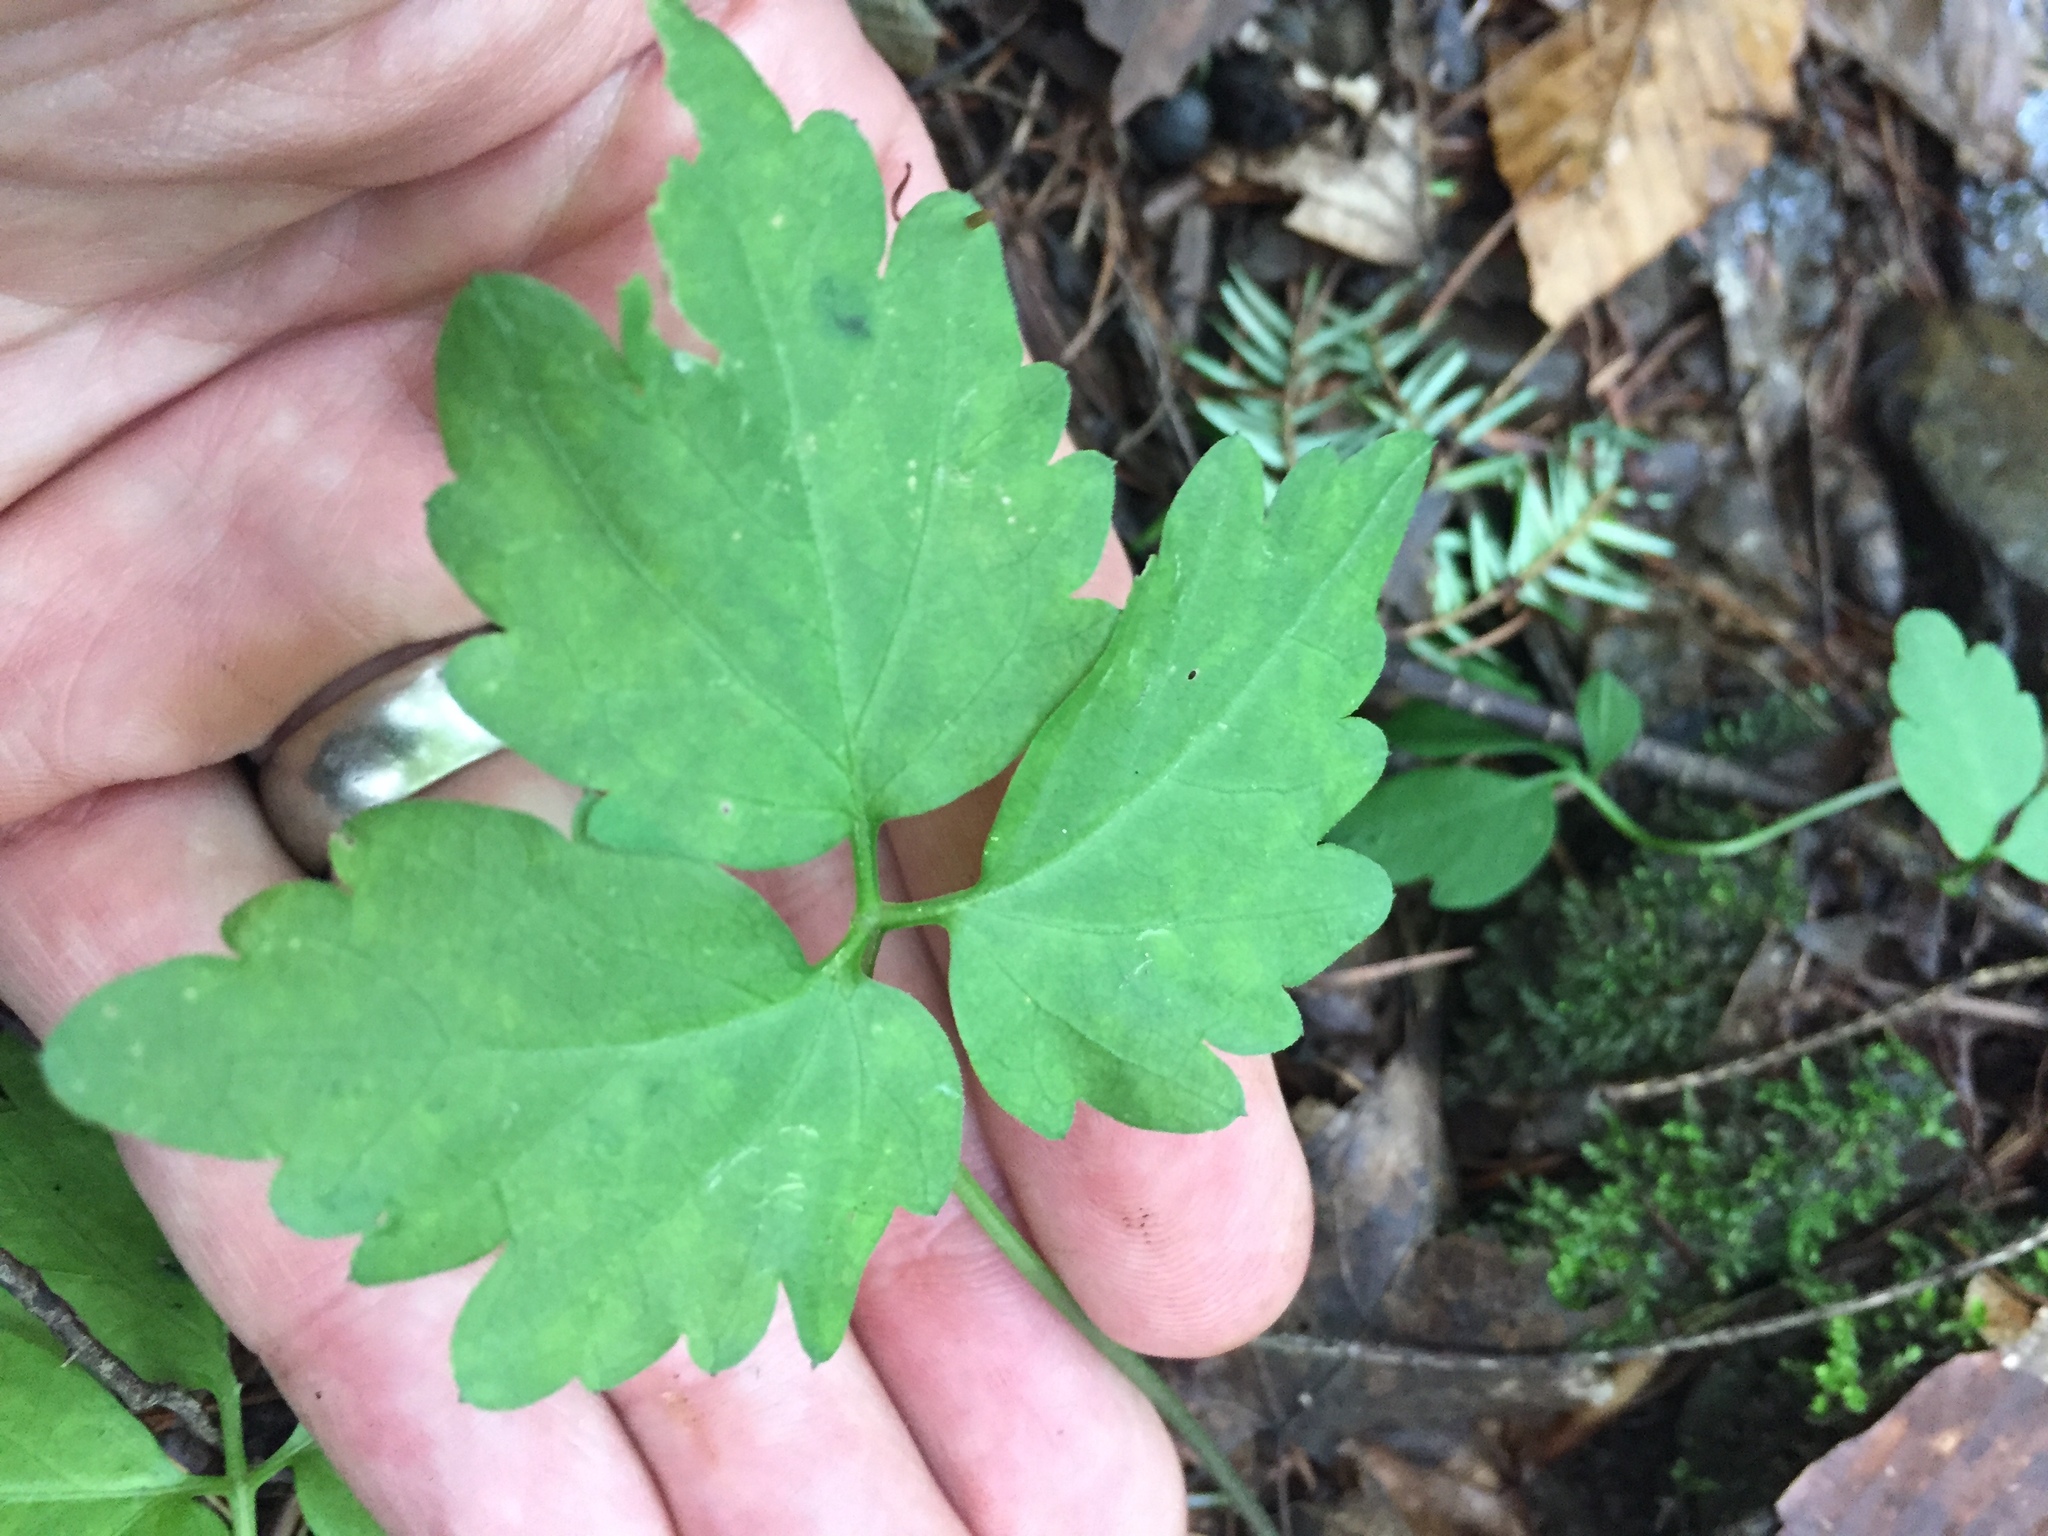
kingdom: Plantae
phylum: Tracheophyta
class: Magnoliopsida
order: Brassicales
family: Brassicaceae
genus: Cardamine
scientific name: Cardamine diphylla
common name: Broad-leaved toothwort
